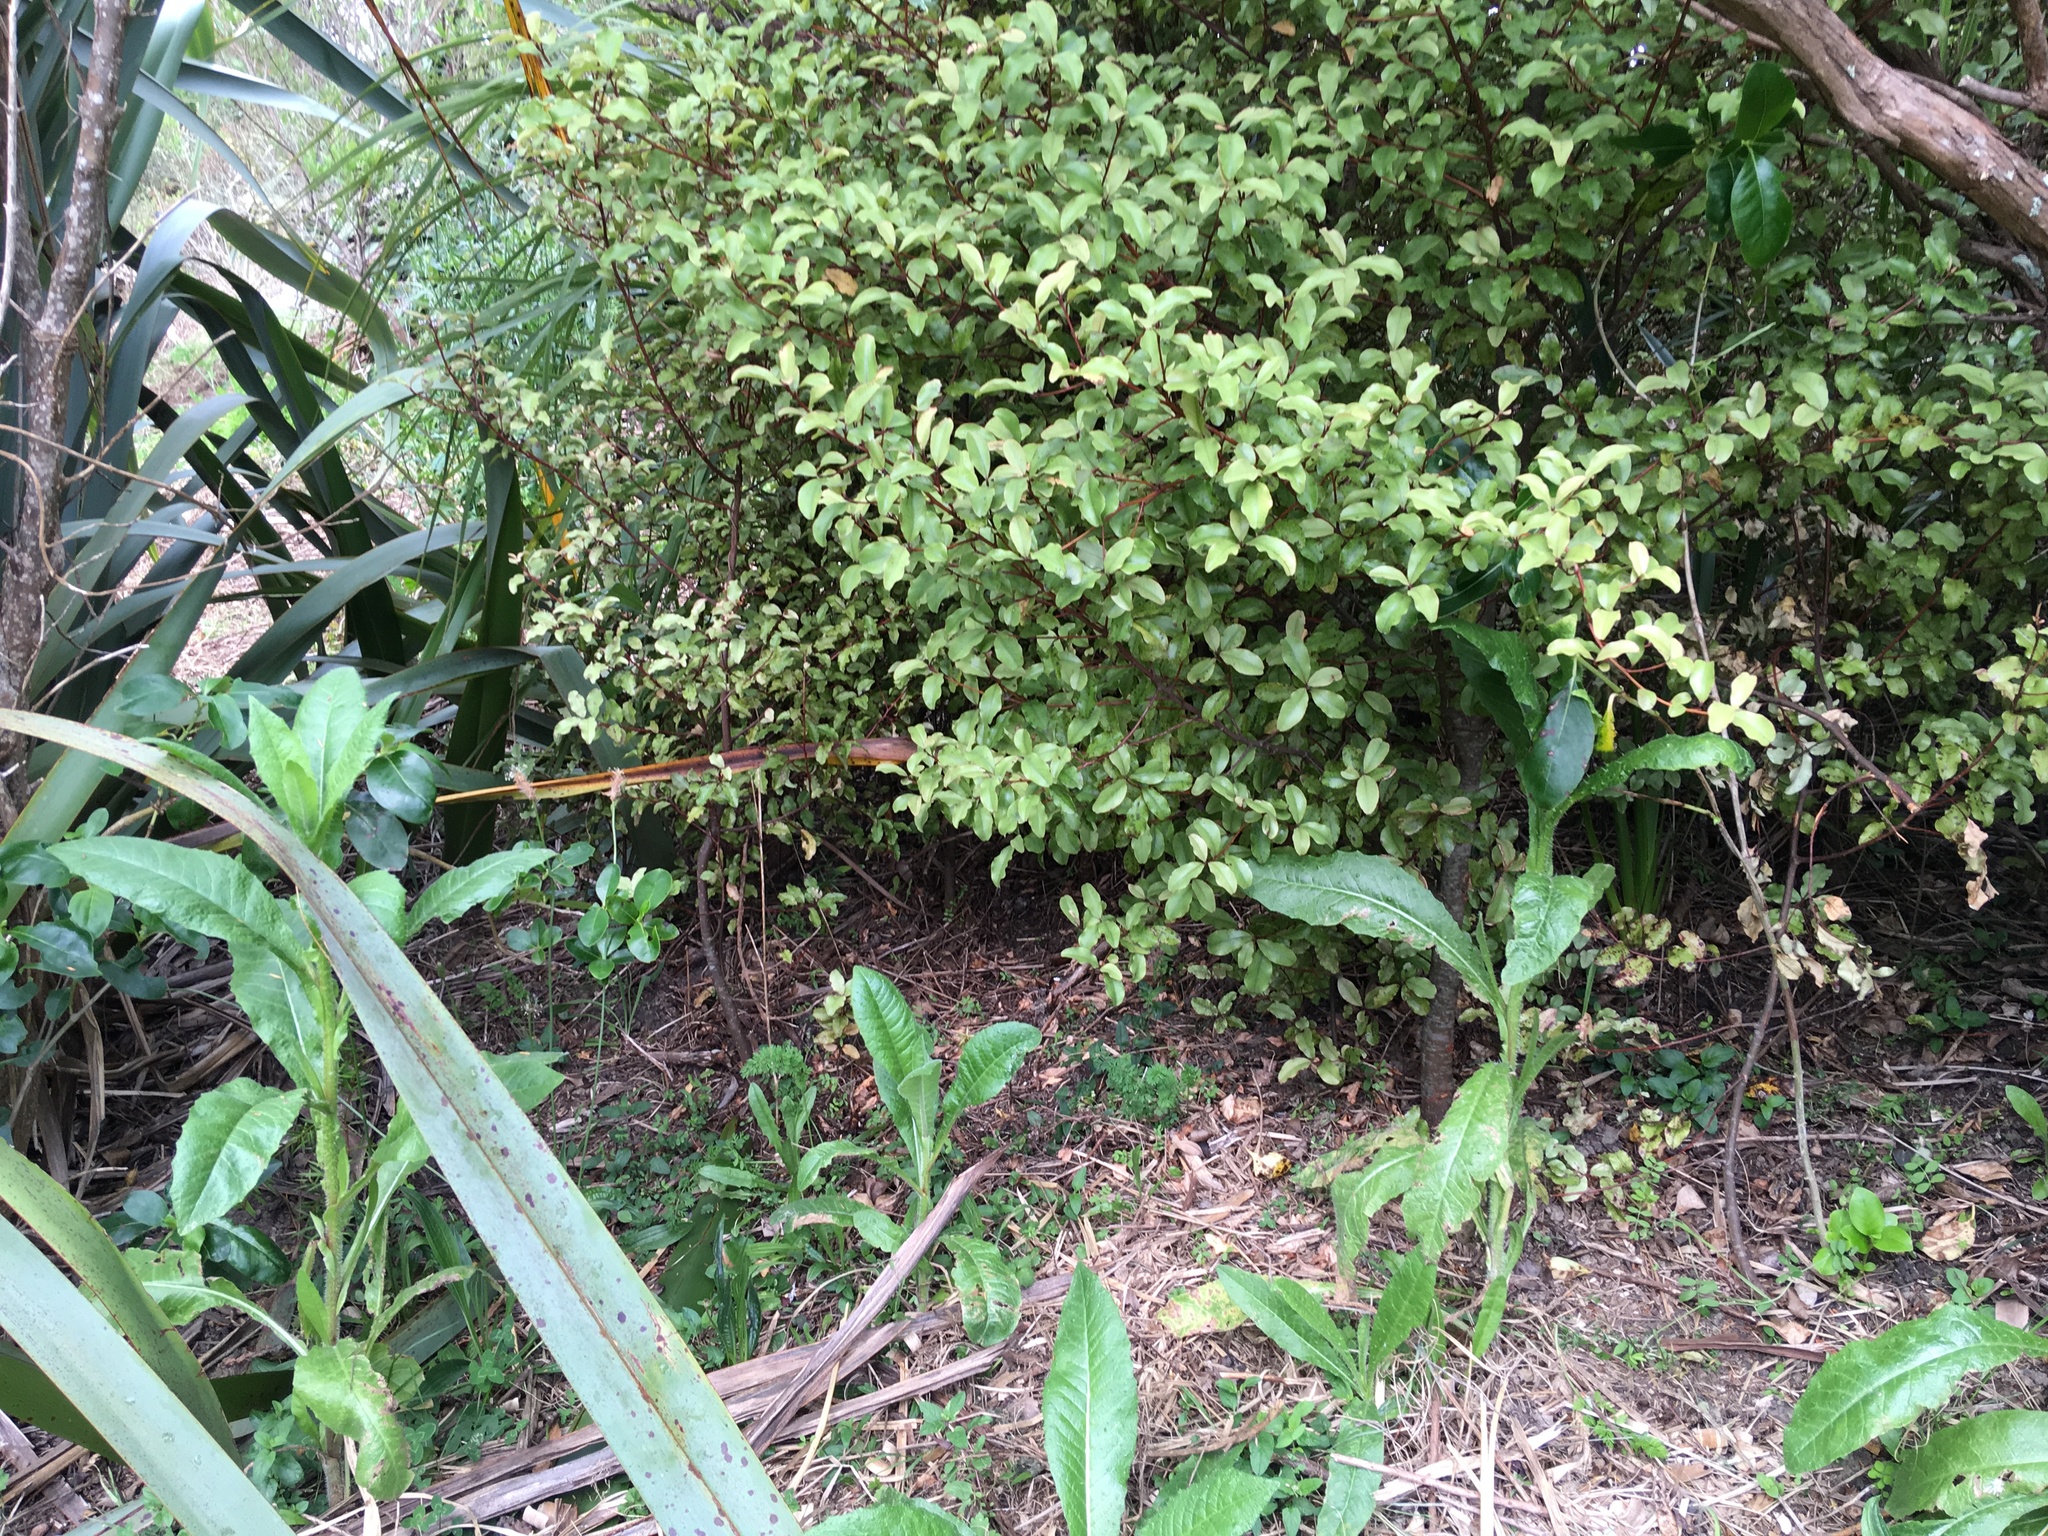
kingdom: Plantae
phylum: Tracheophyta
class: Magnoliopsida
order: Asterales
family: Asteraceae
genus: Helminthotheca
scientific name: Helminthotheca echioides
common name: Ox-tongue
